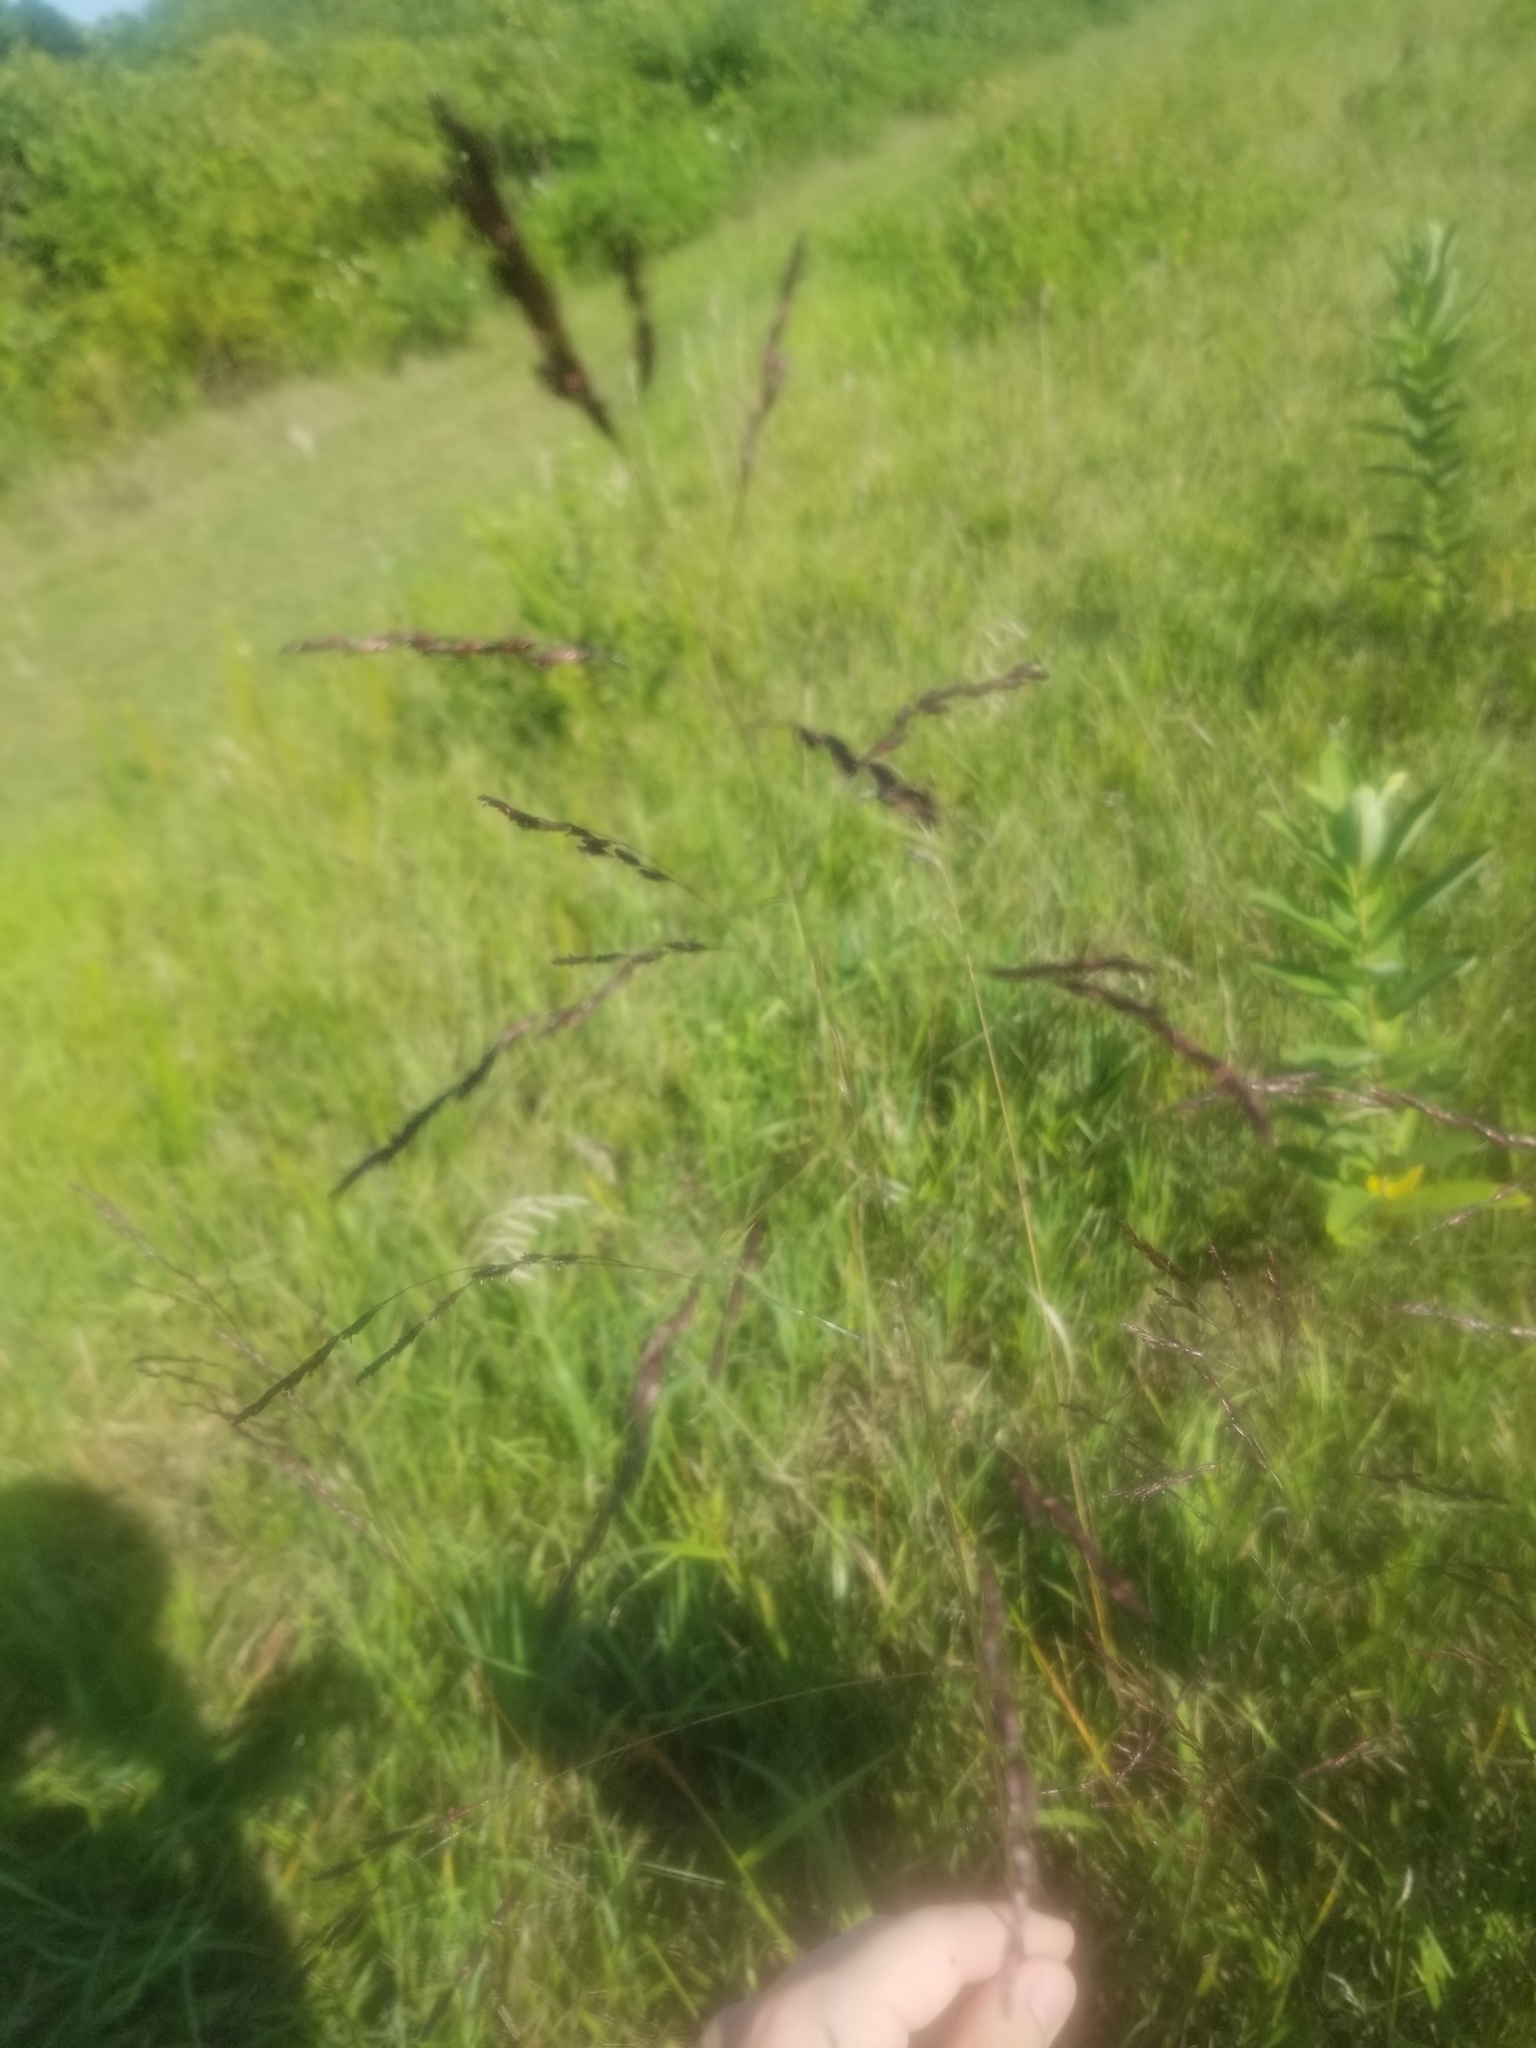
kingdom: Plantae
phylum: Tracheophyta
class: Liliopsida
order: Poales
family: Poaceae
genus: Tridens
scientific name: Tridens flavus
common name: Purpletop
